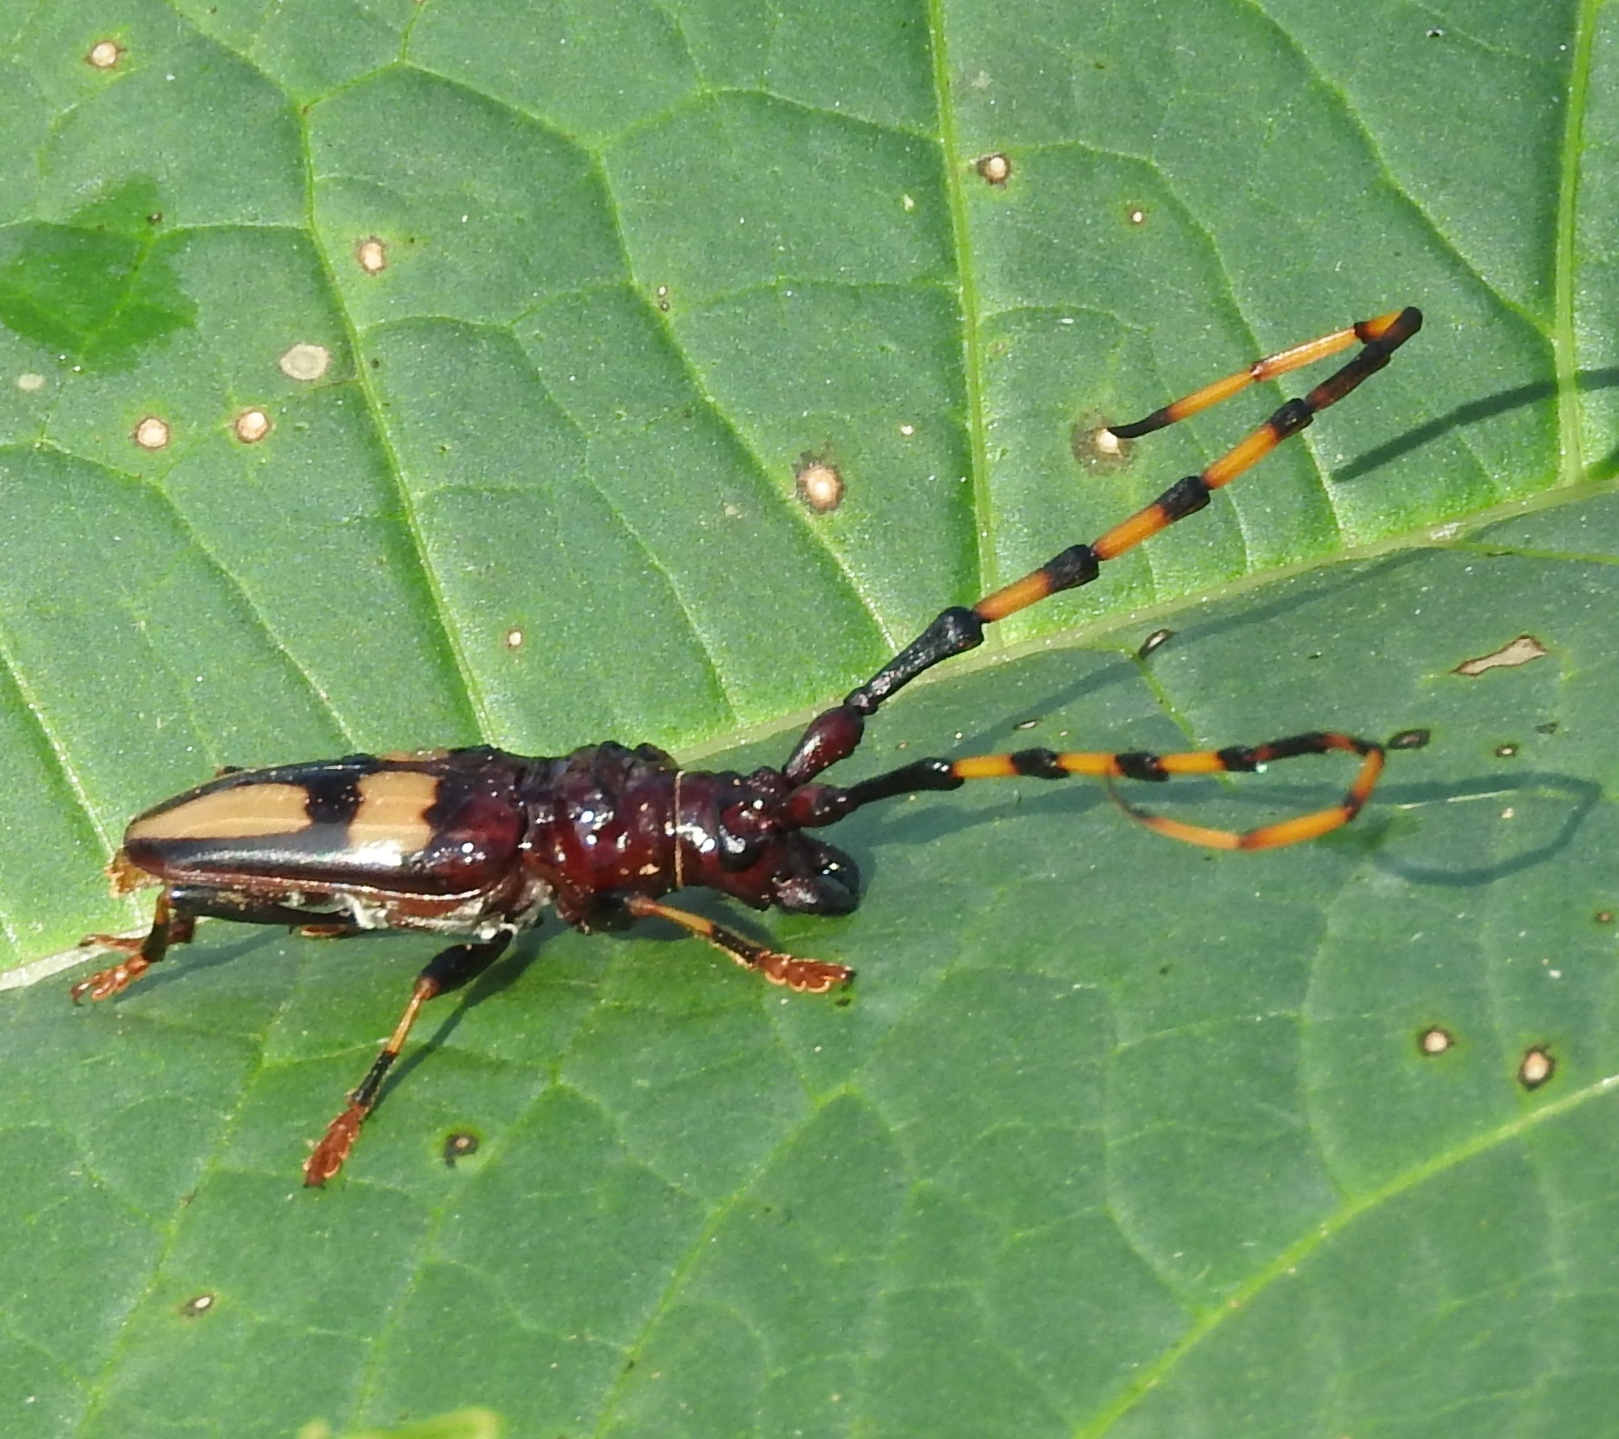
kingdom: Animalia
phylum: Arthropoda
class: Insecta
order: Coleoptera
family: Cerambycidae
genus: Trachyderes
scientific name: Trachyderes mandibularis
